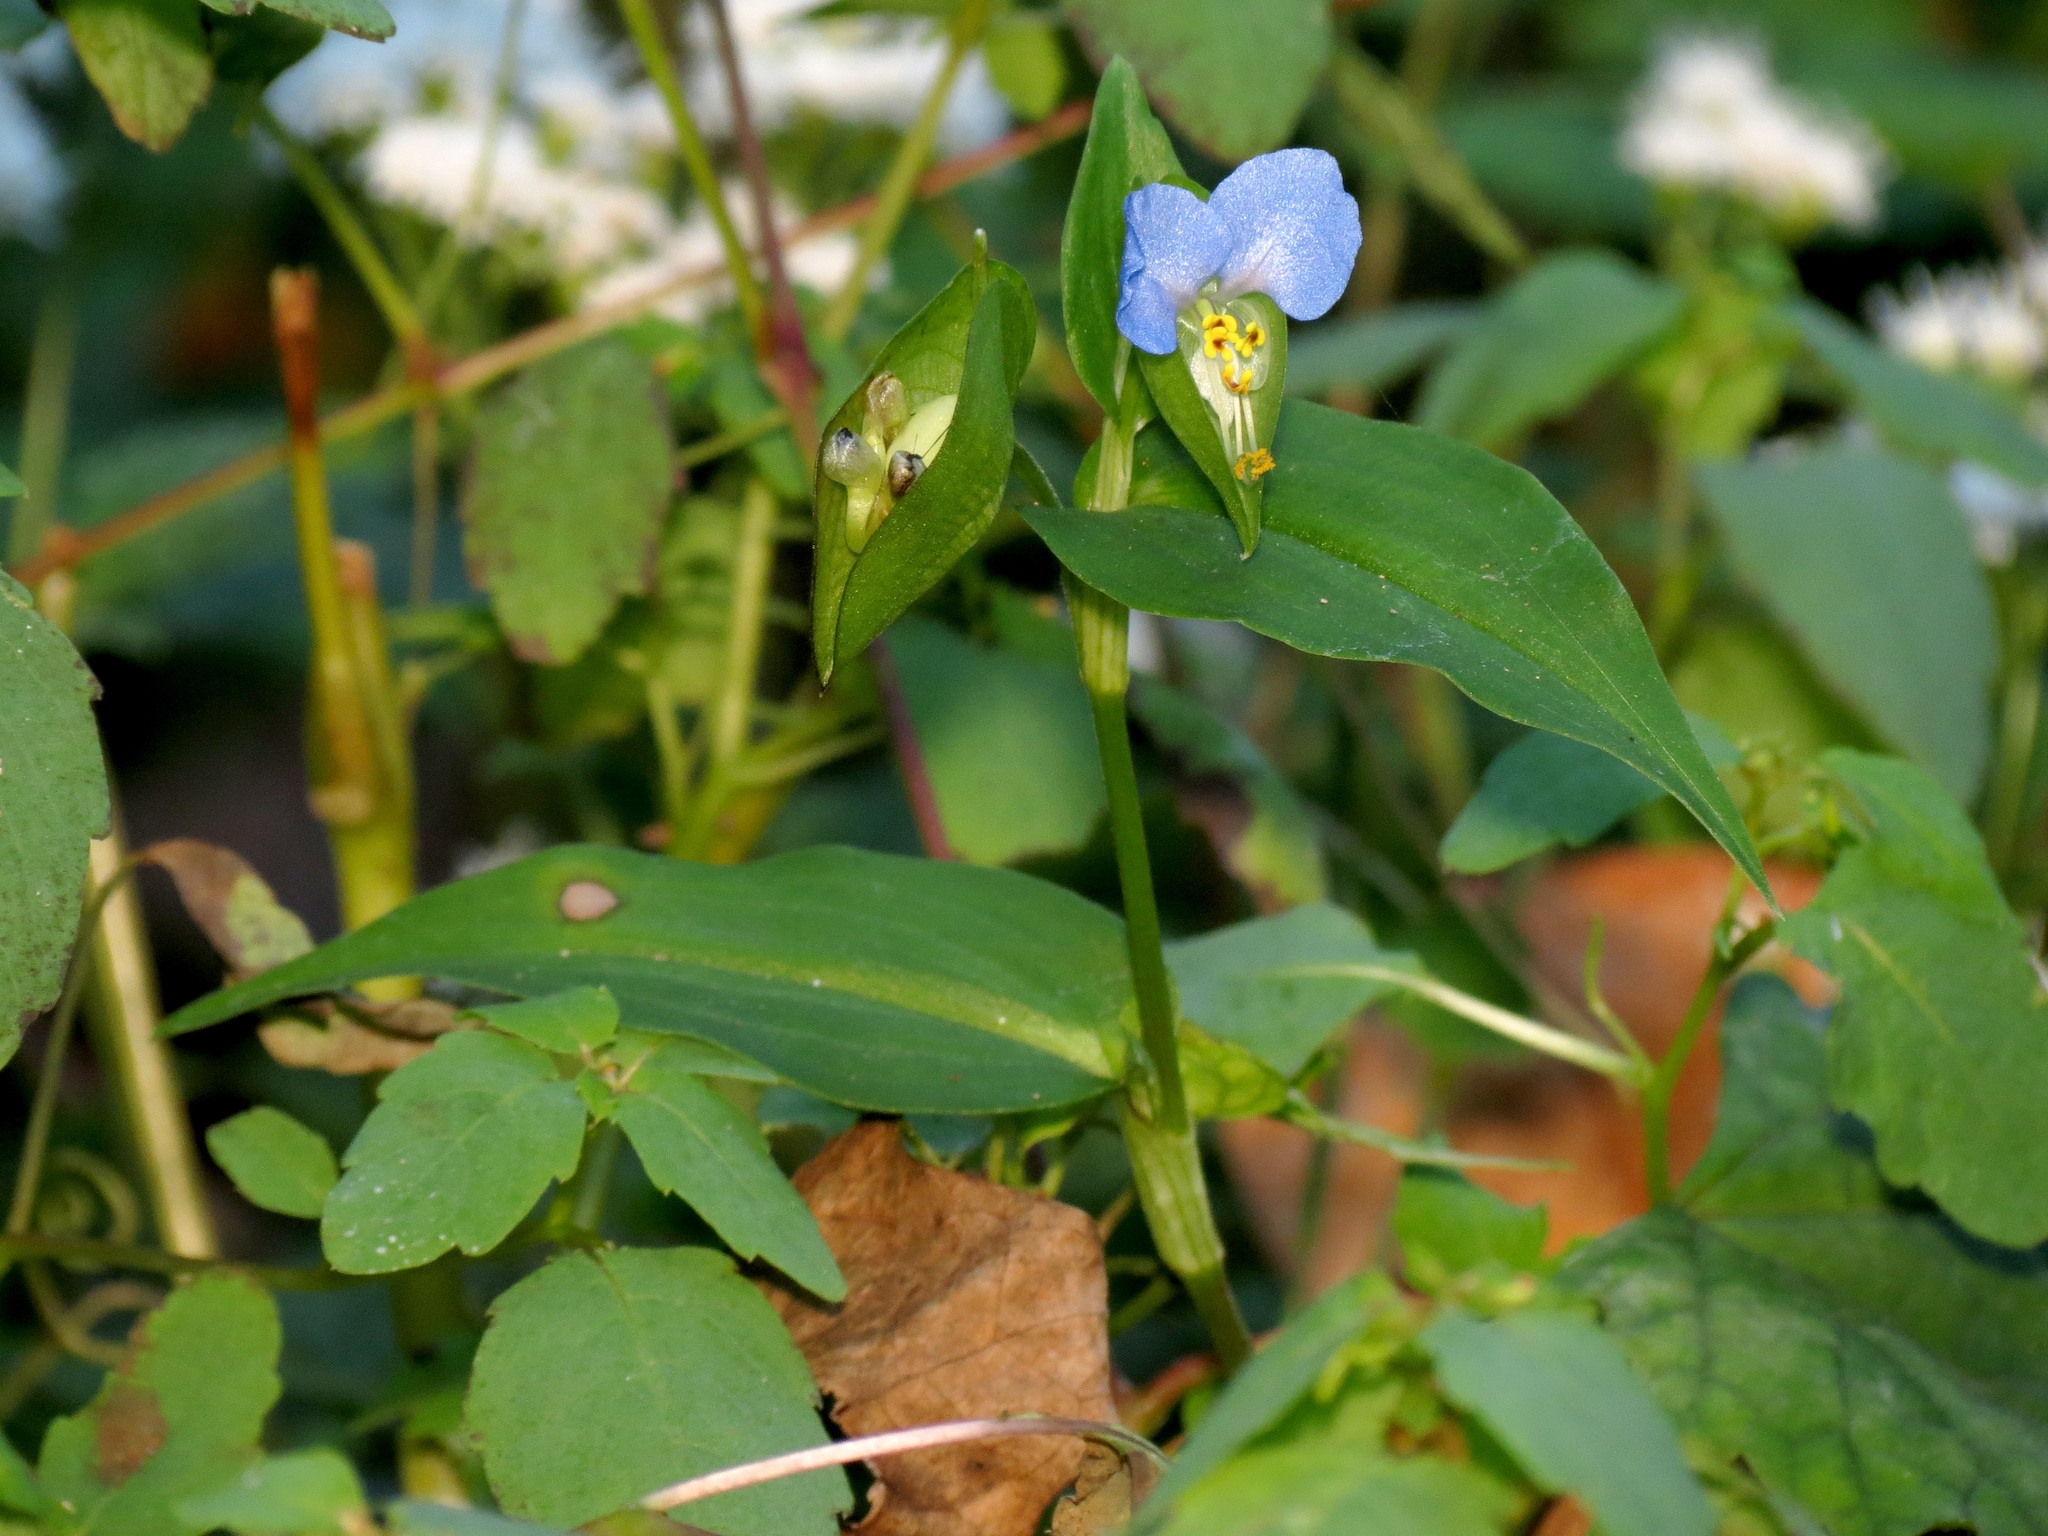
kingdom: Plantae
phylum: Tracheophyta
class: Liliopsida
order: Commelinales
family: Commelinaceae
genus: Commelina
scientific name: Commelina communis
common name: Asiatic dayflower
